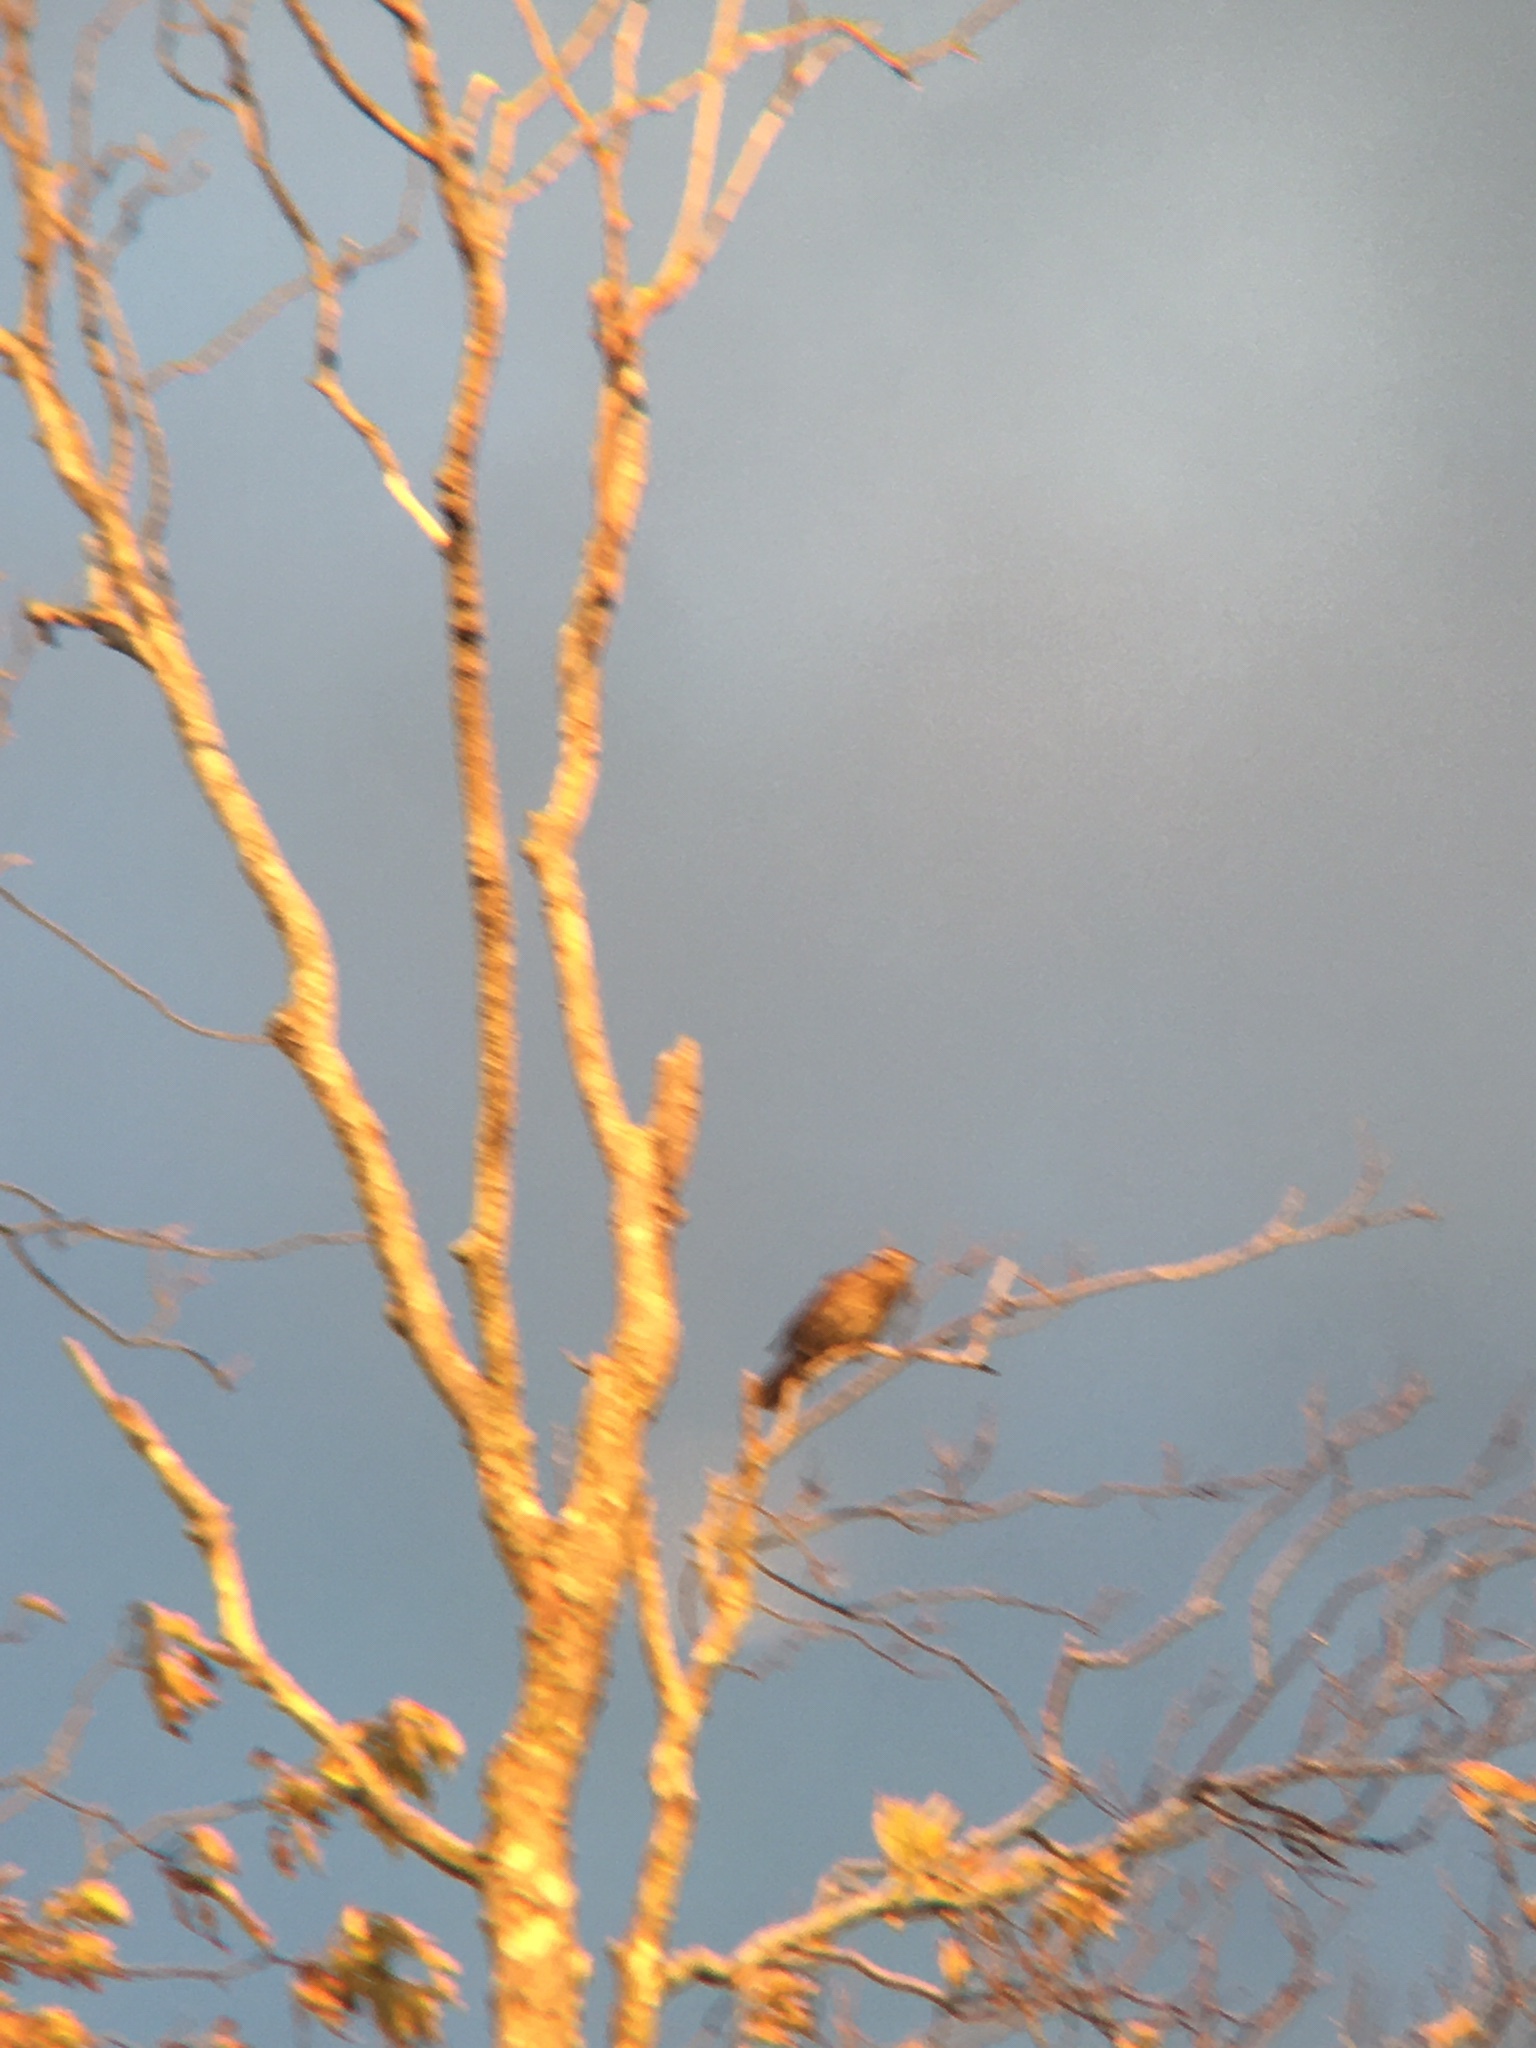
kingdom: Animalia
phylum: Chordata
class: Aves
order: Passeriformes
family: Icteridae
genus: Agelaius
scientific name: Agelaius phoeniceus
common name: Red-winged blackbird
